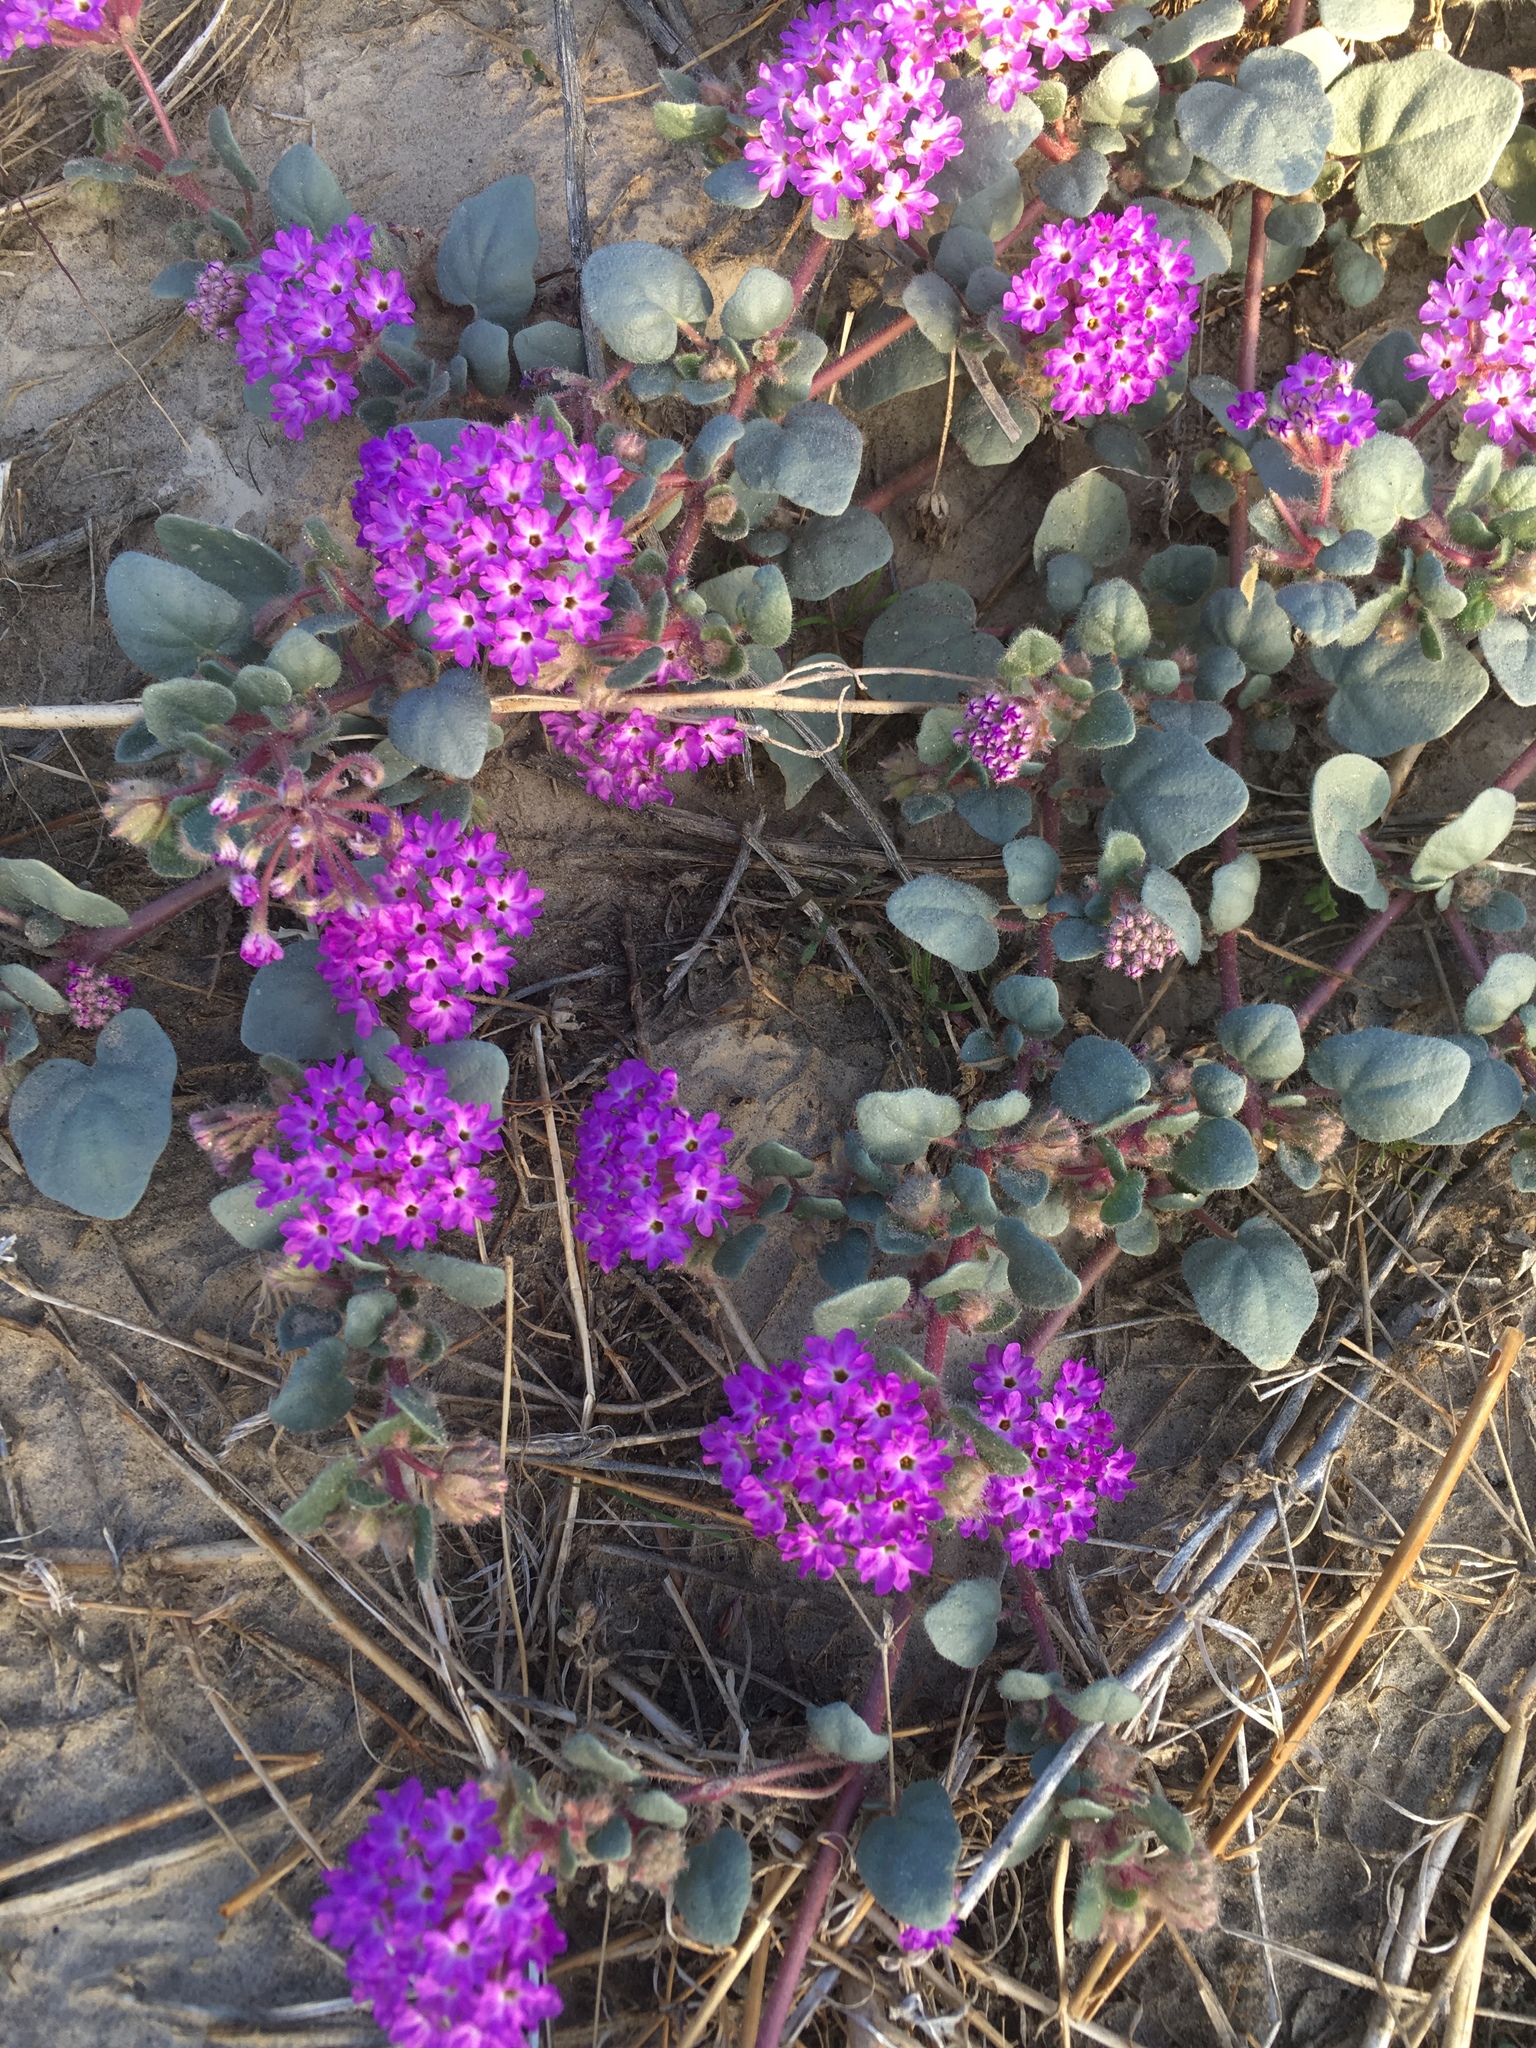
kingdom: Plantae
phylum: Tracheophyta
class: Magnoliopsida
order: Caryophyllales
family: Nyctaginaceae
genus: Abronia
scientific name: Abronia villosa
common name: Desert sand-verbena
